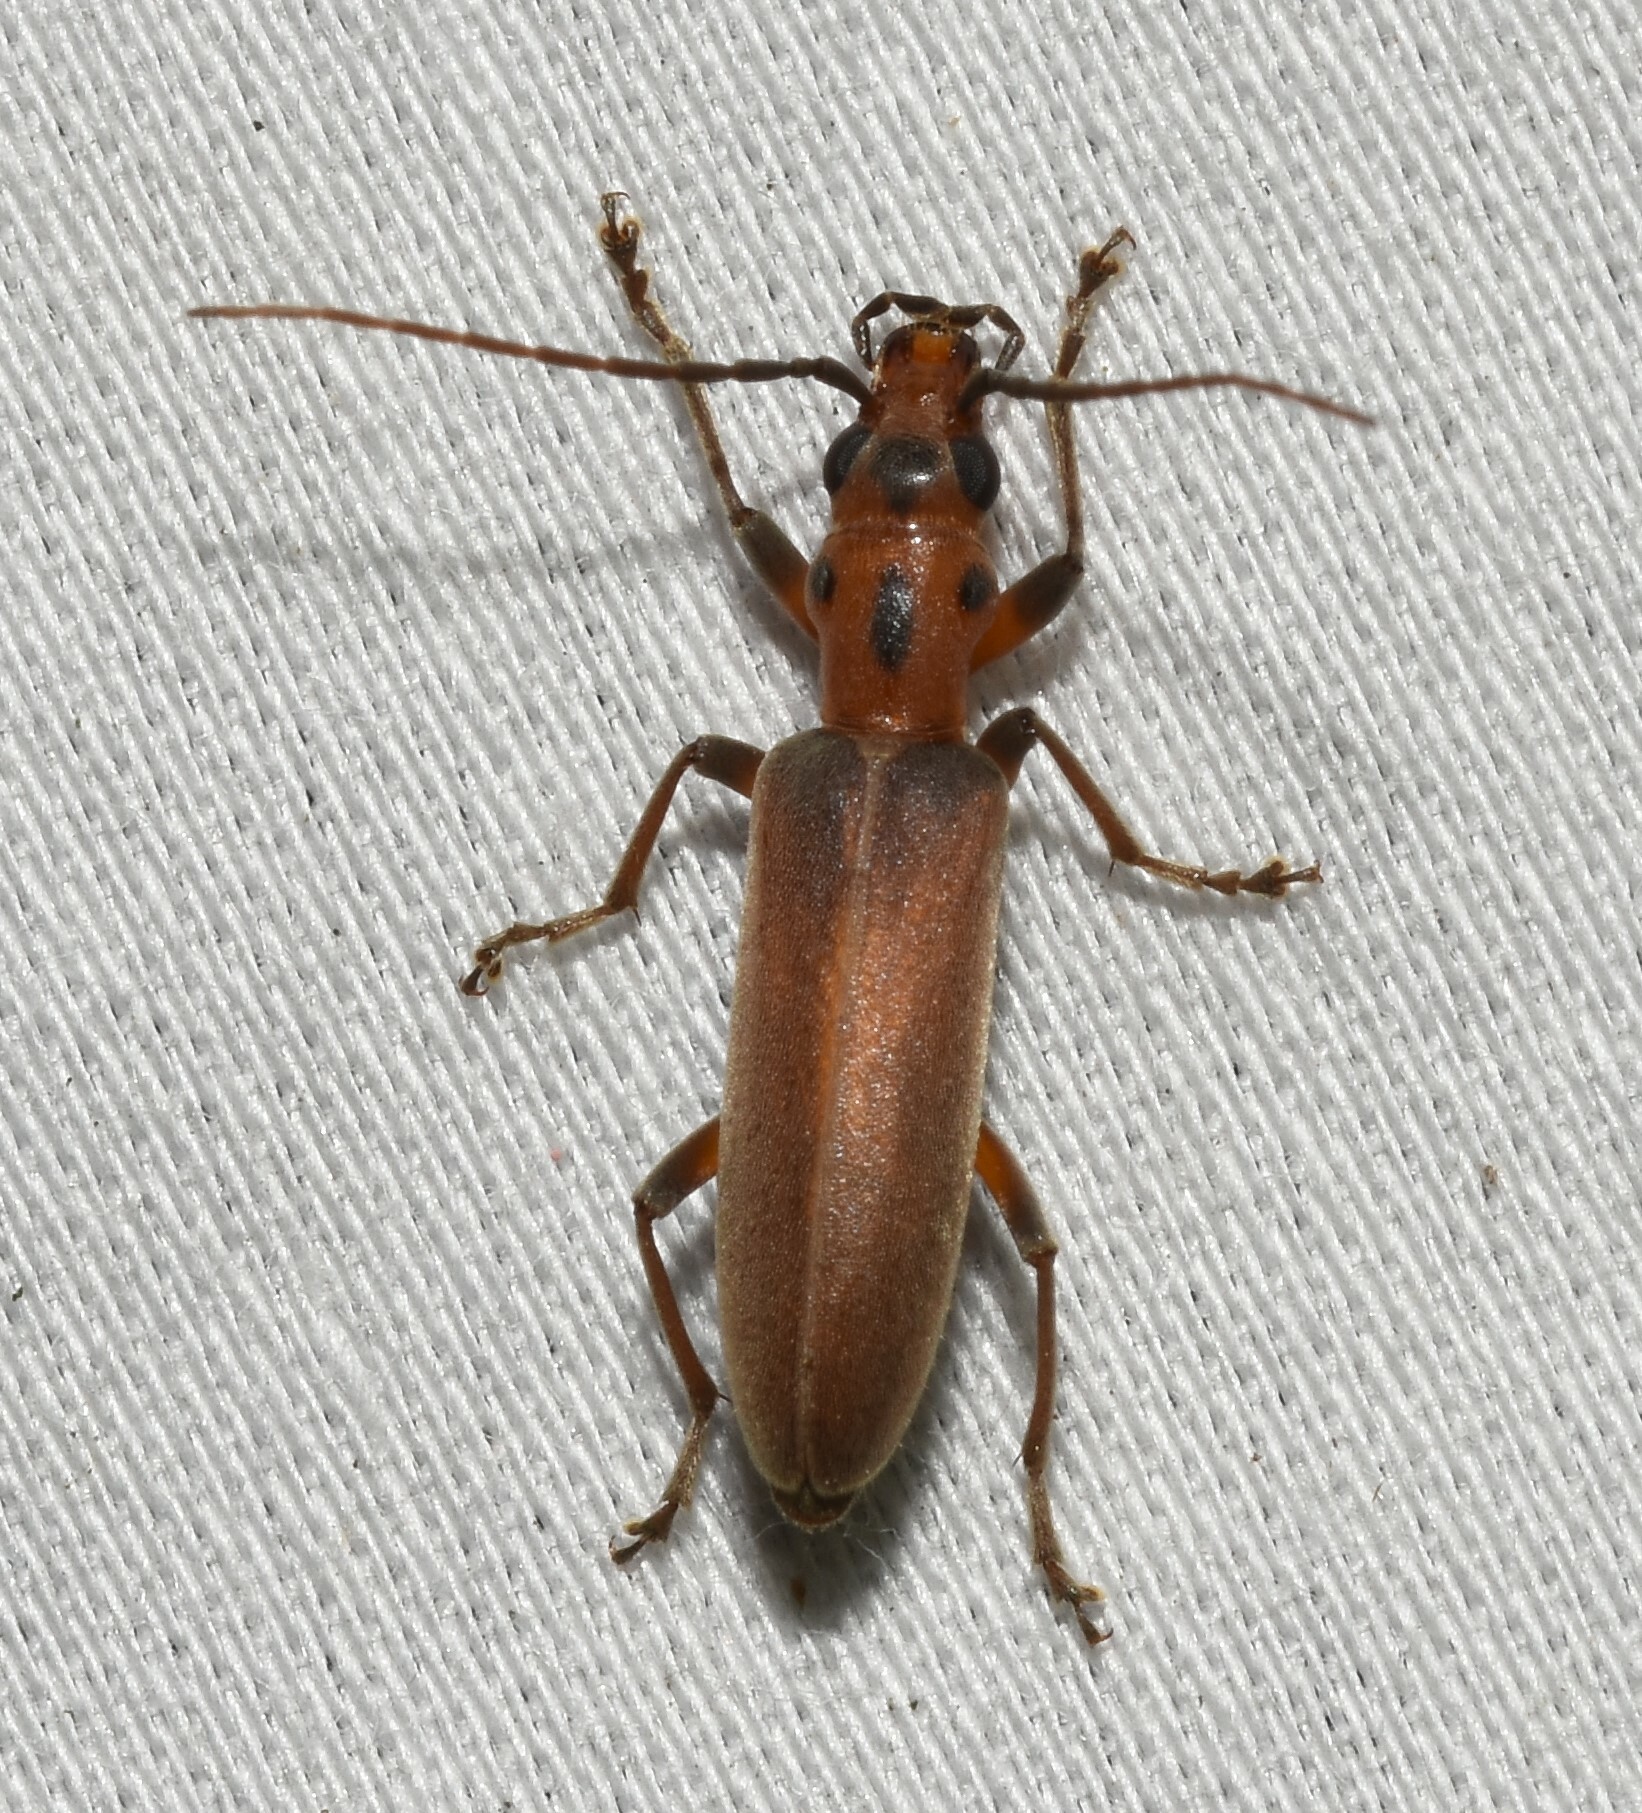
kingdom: Animalia
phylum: Arthropoda
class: Insecta
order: Coleoptera
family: Oedemeridae
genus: Oxacis
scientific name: Oxacis trimaculata
